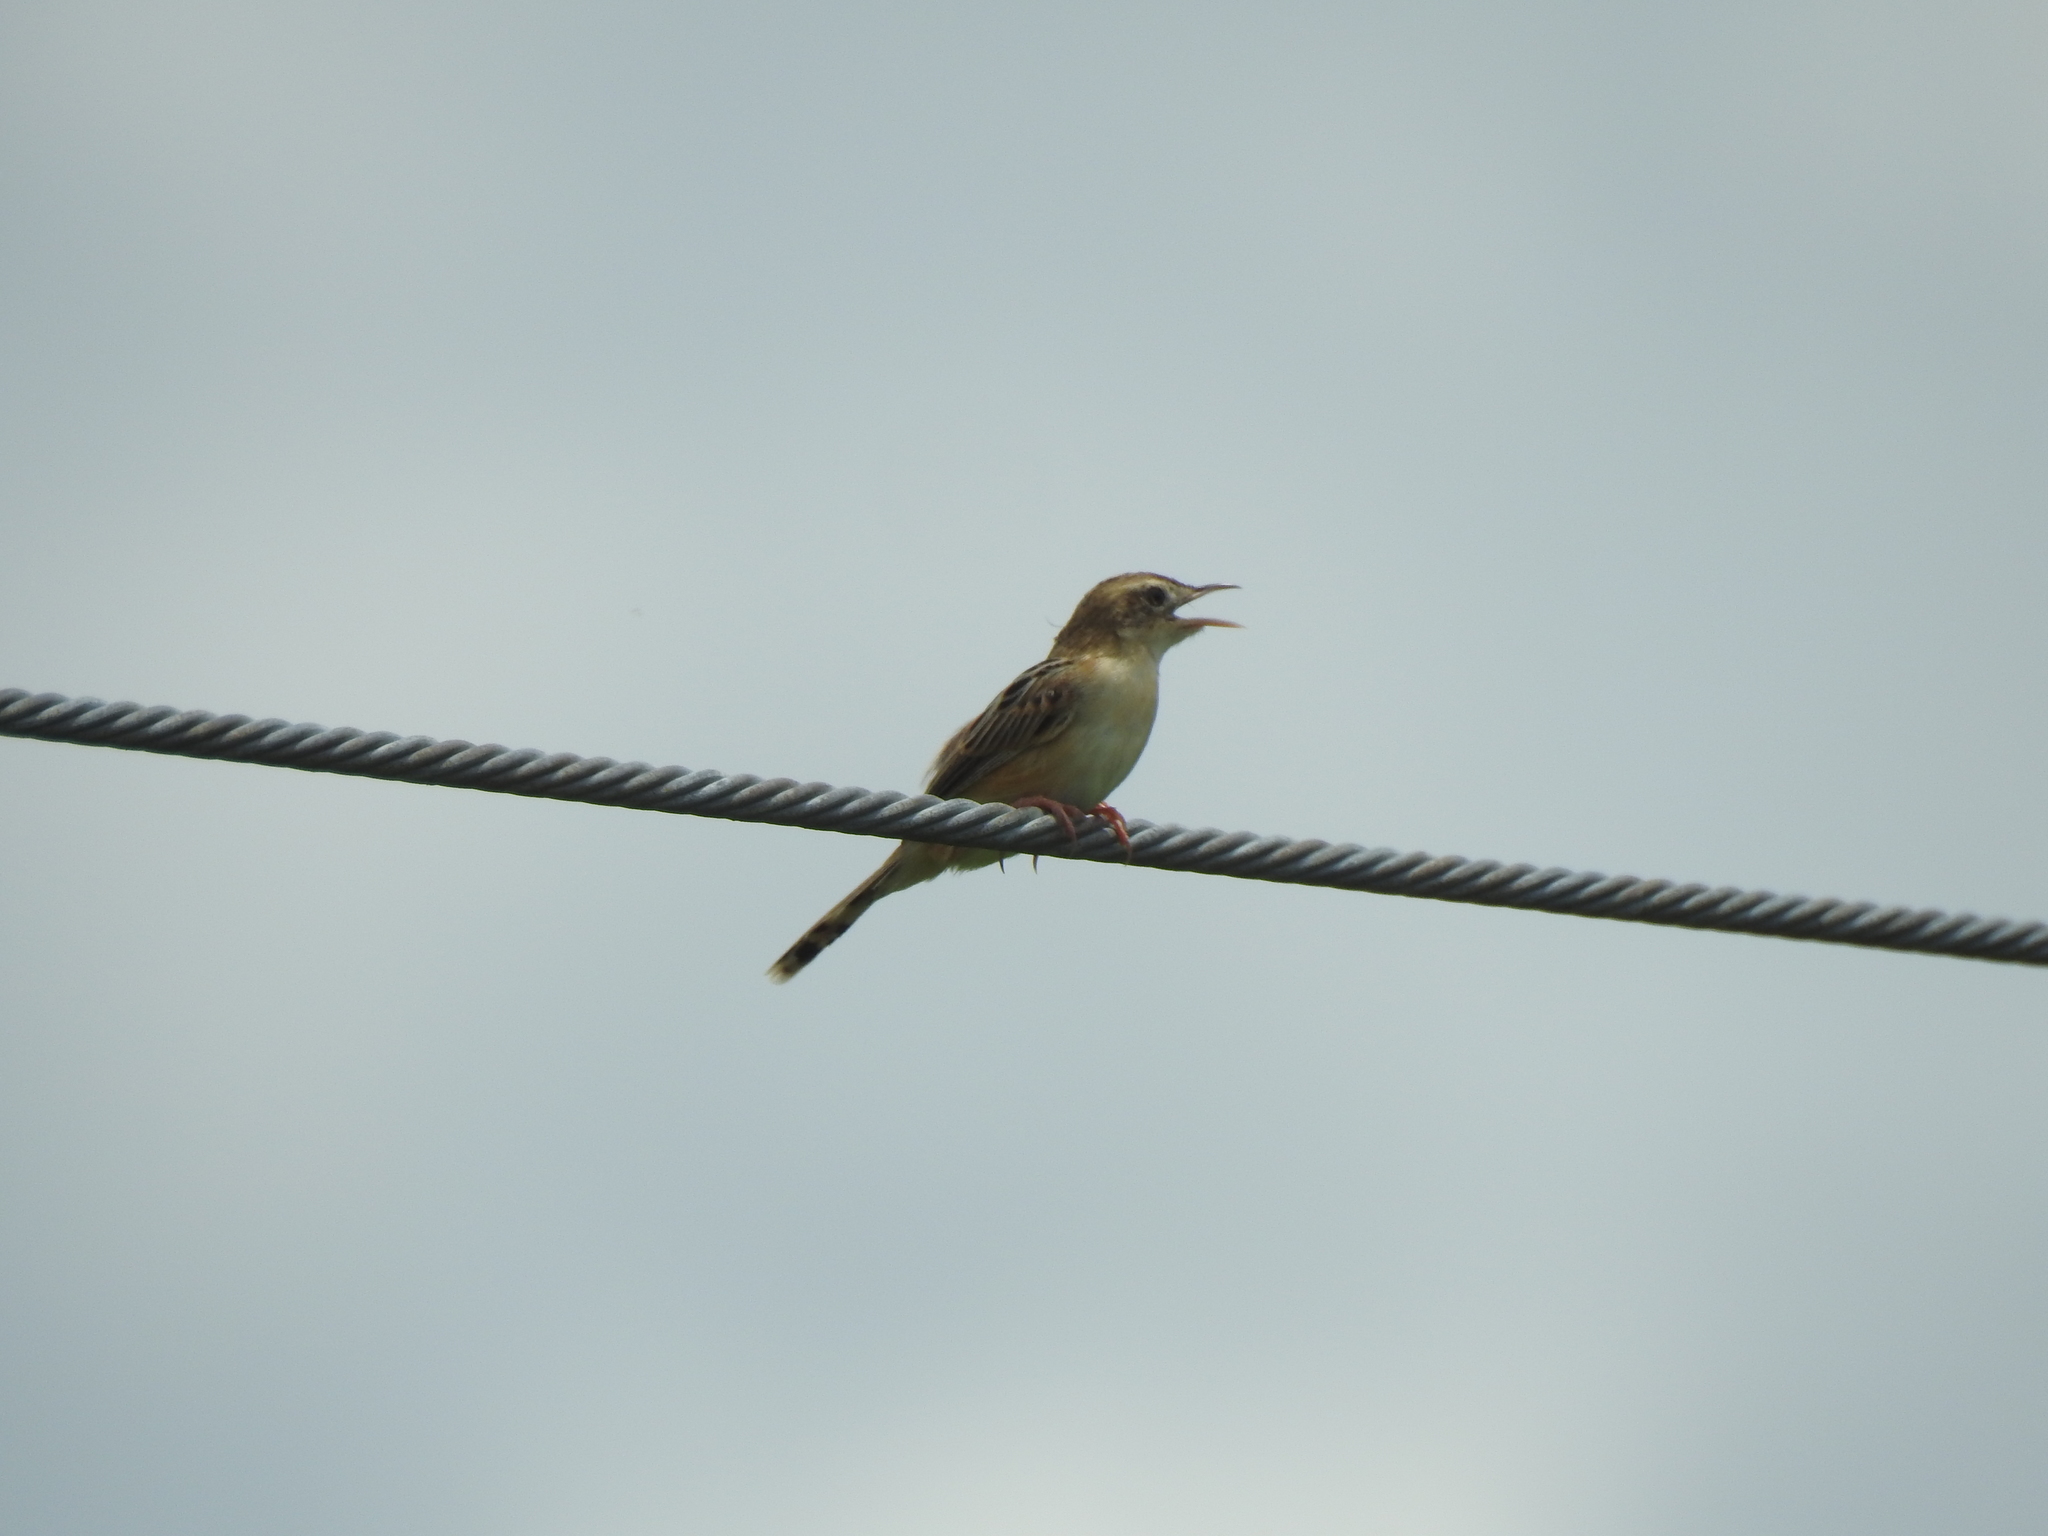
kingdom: Animalia
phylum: Chordata
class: Aves
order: Passeriformes
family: Cisticolidae
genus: Cisticola
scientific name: Cisticola juncidis
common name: Zitting cisticola
